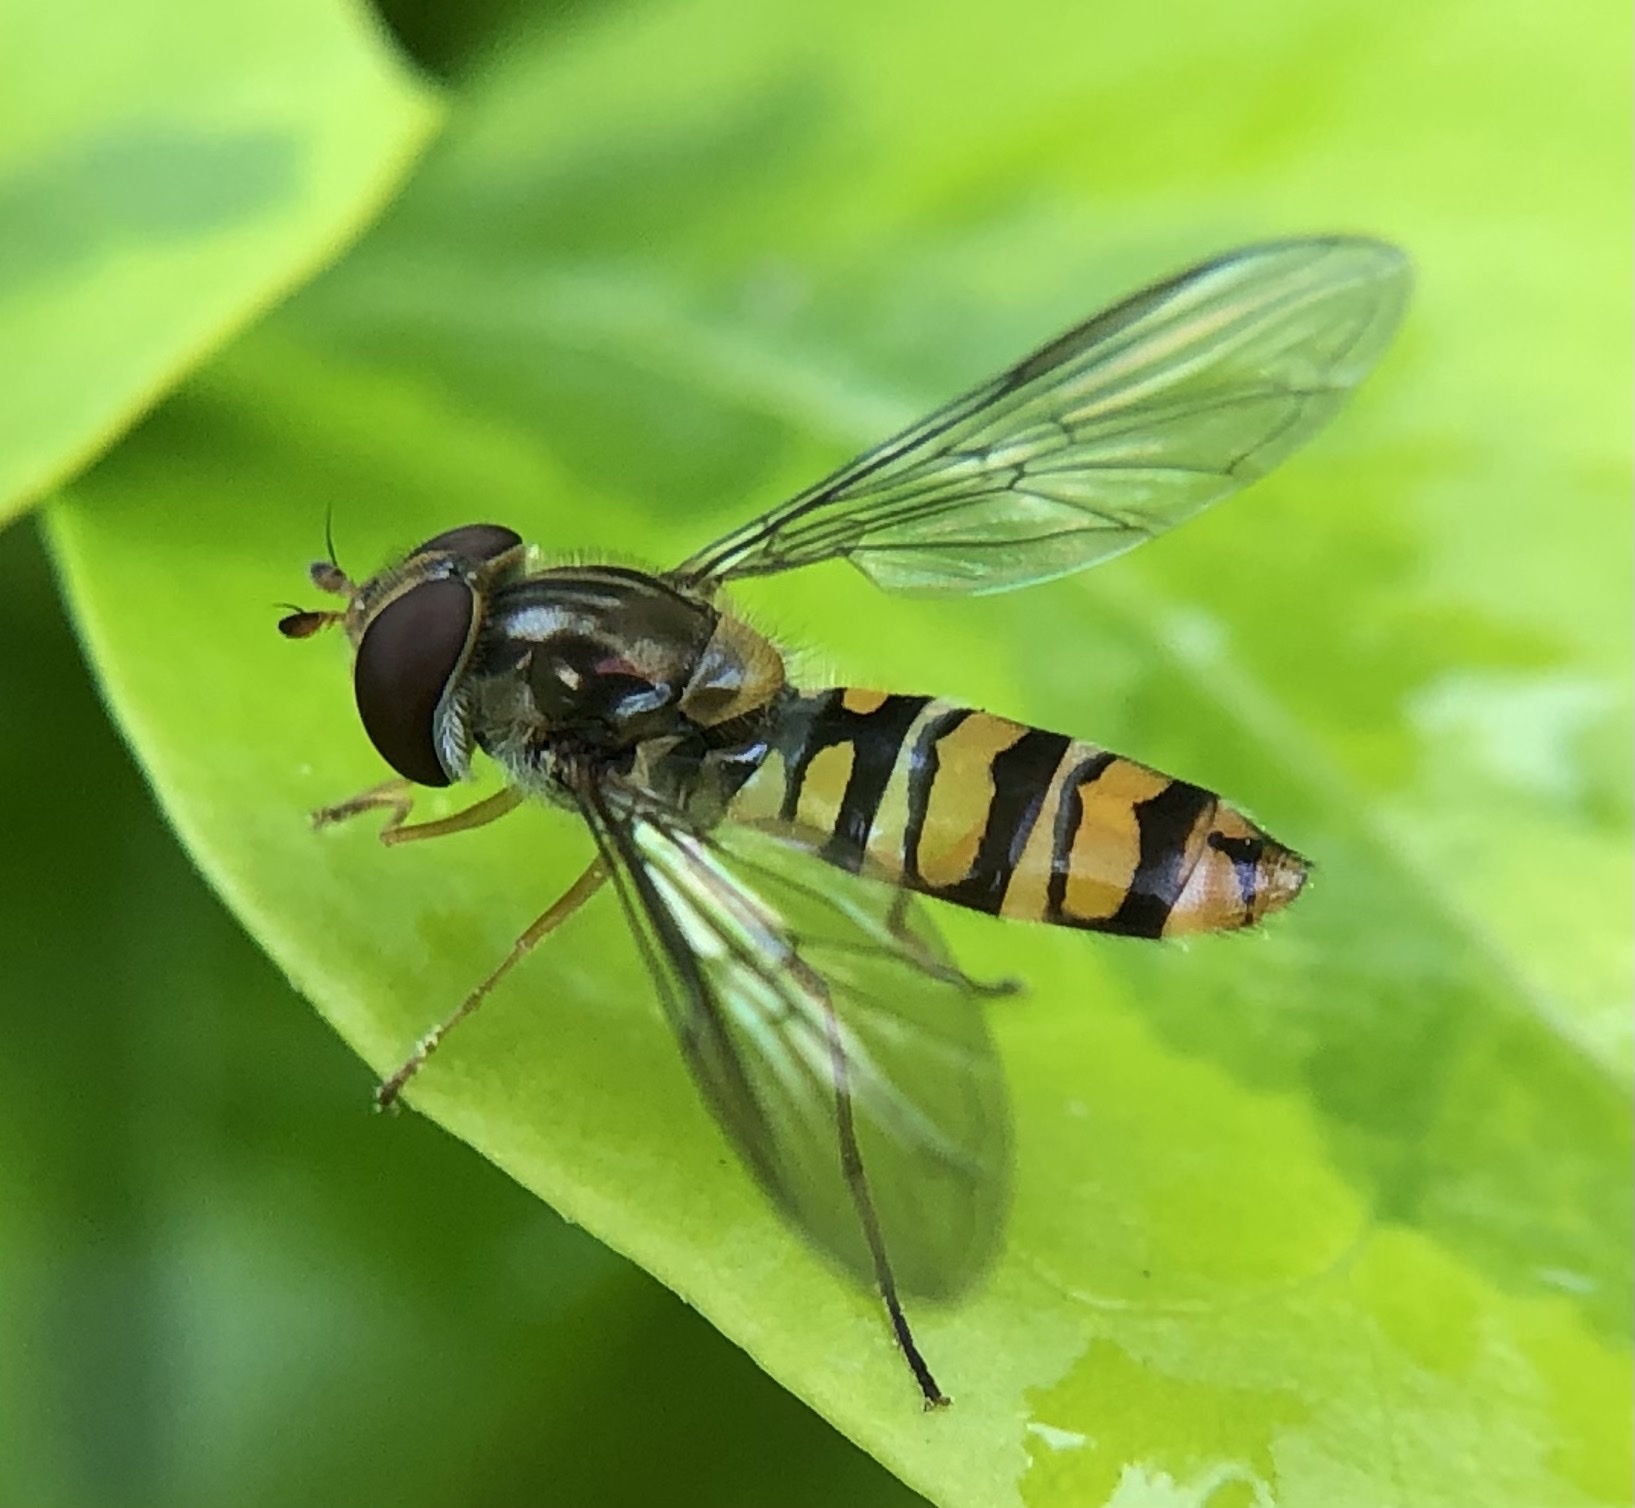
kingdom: Animalia
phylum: Arthropoda
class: Insecta
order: Diptera
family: Syrphidae
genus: Episyrphus
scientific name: Episyrphus balteatus
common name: Marmalade hoverfly
